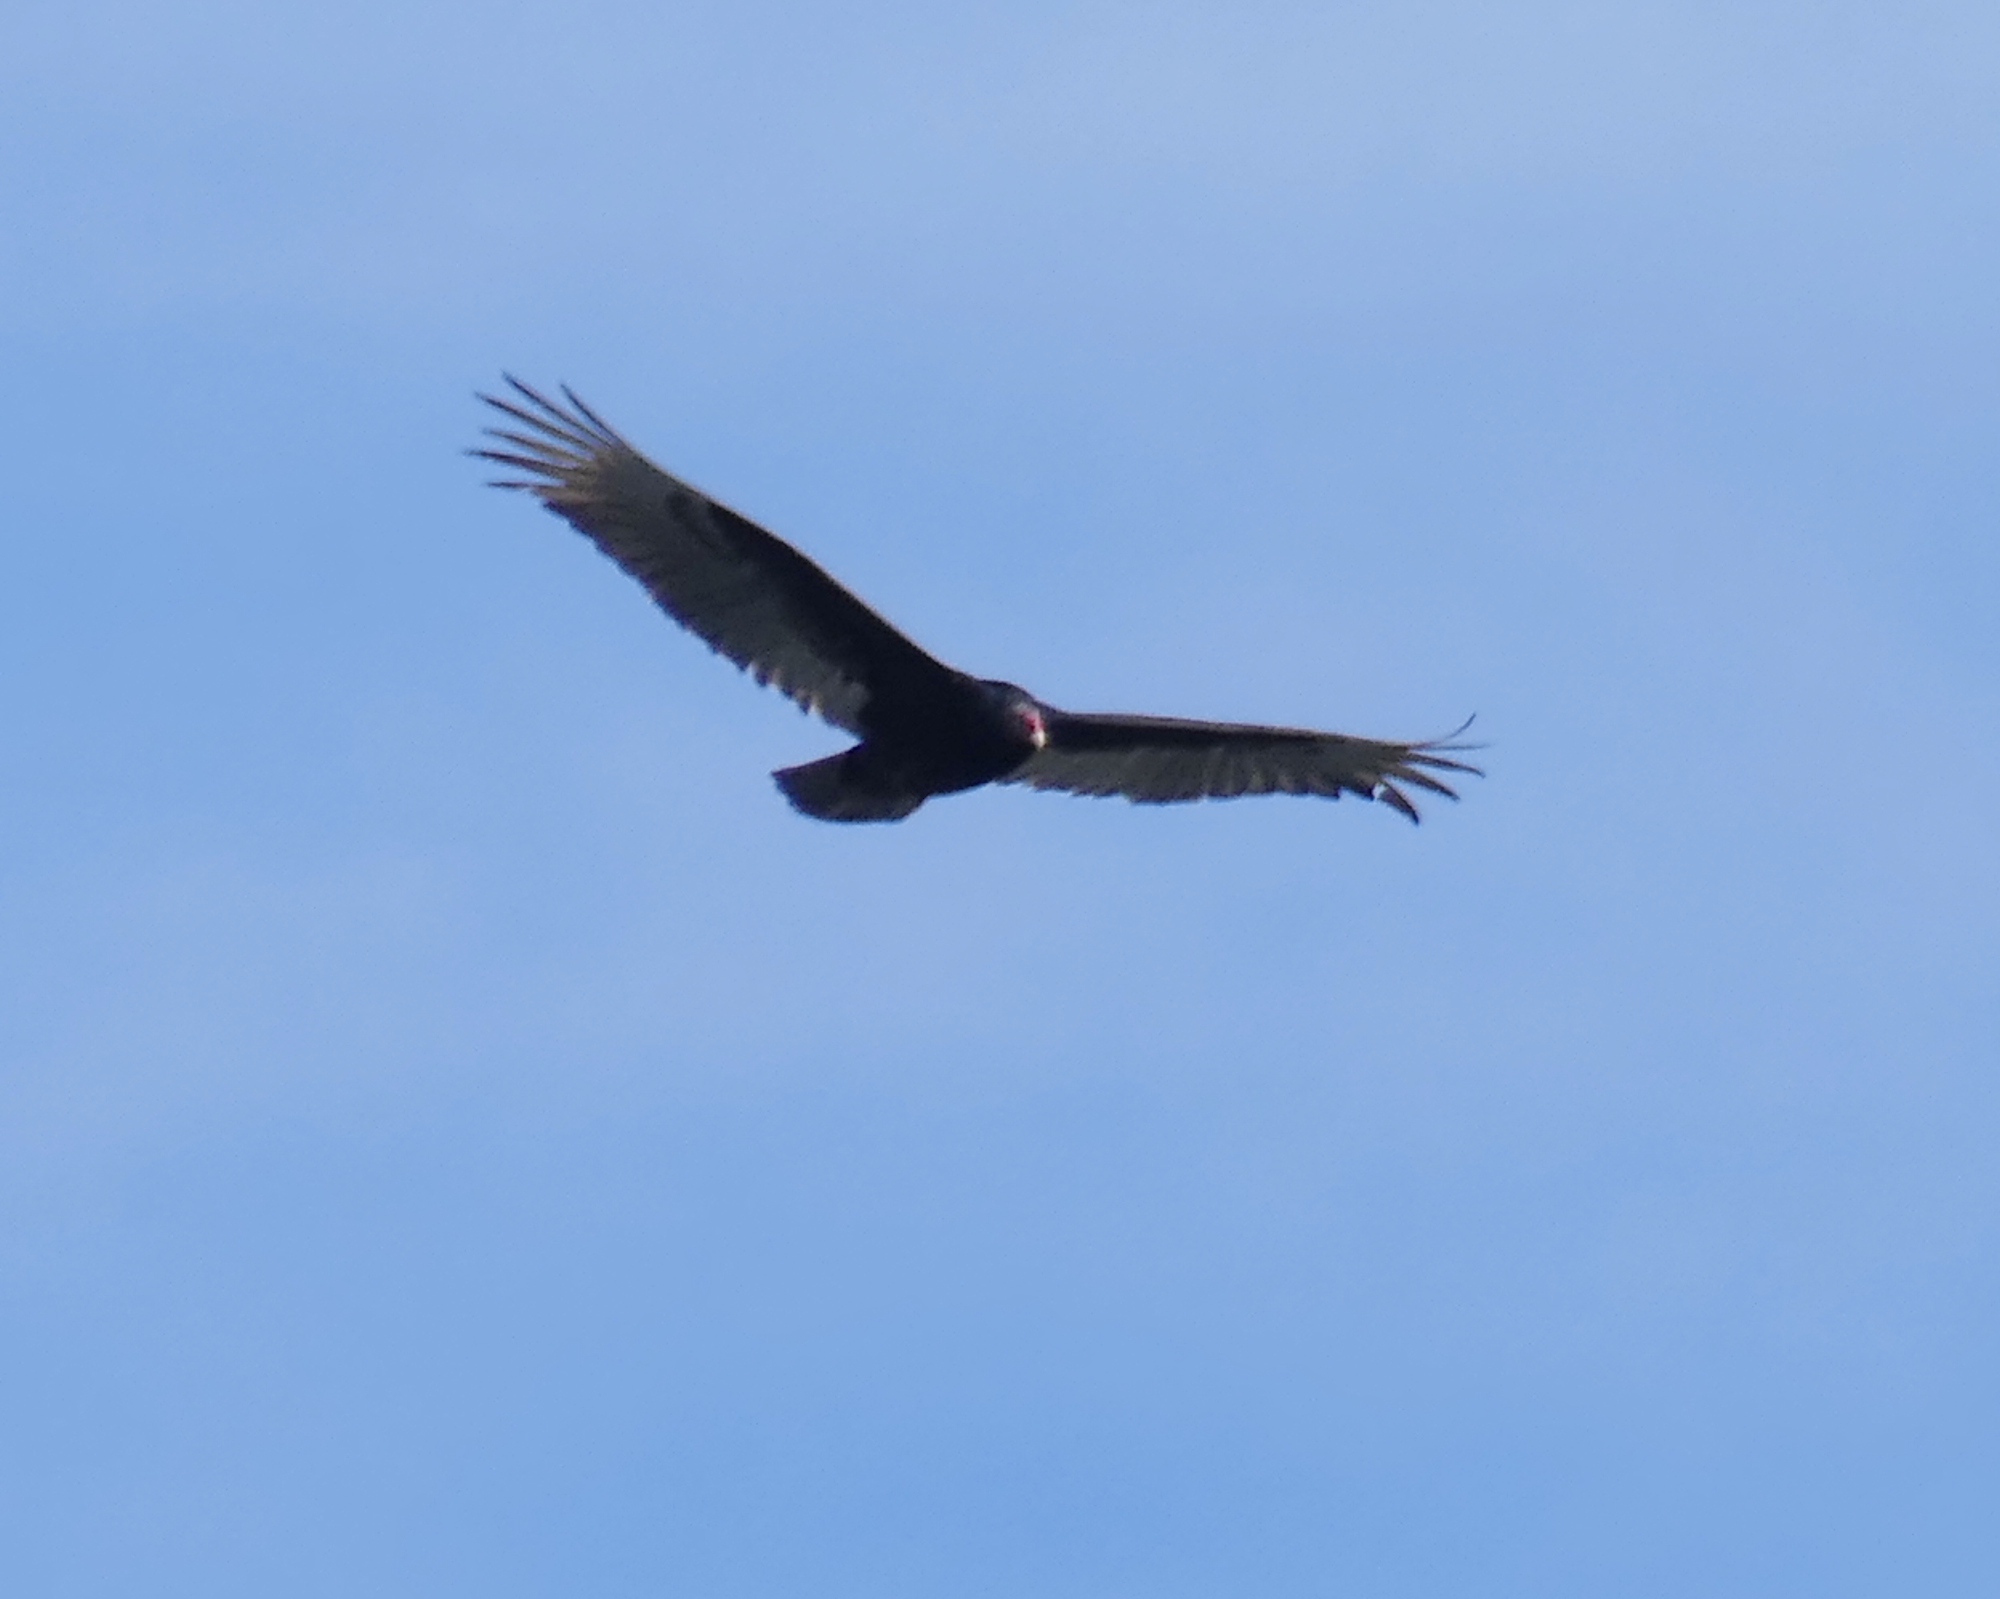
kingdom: Animalia
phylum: Chordata
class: Aves
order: Accipitriformes
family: Cathartidae
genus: Cathartes
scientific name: Cathartes aura
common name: Turkey vulture
